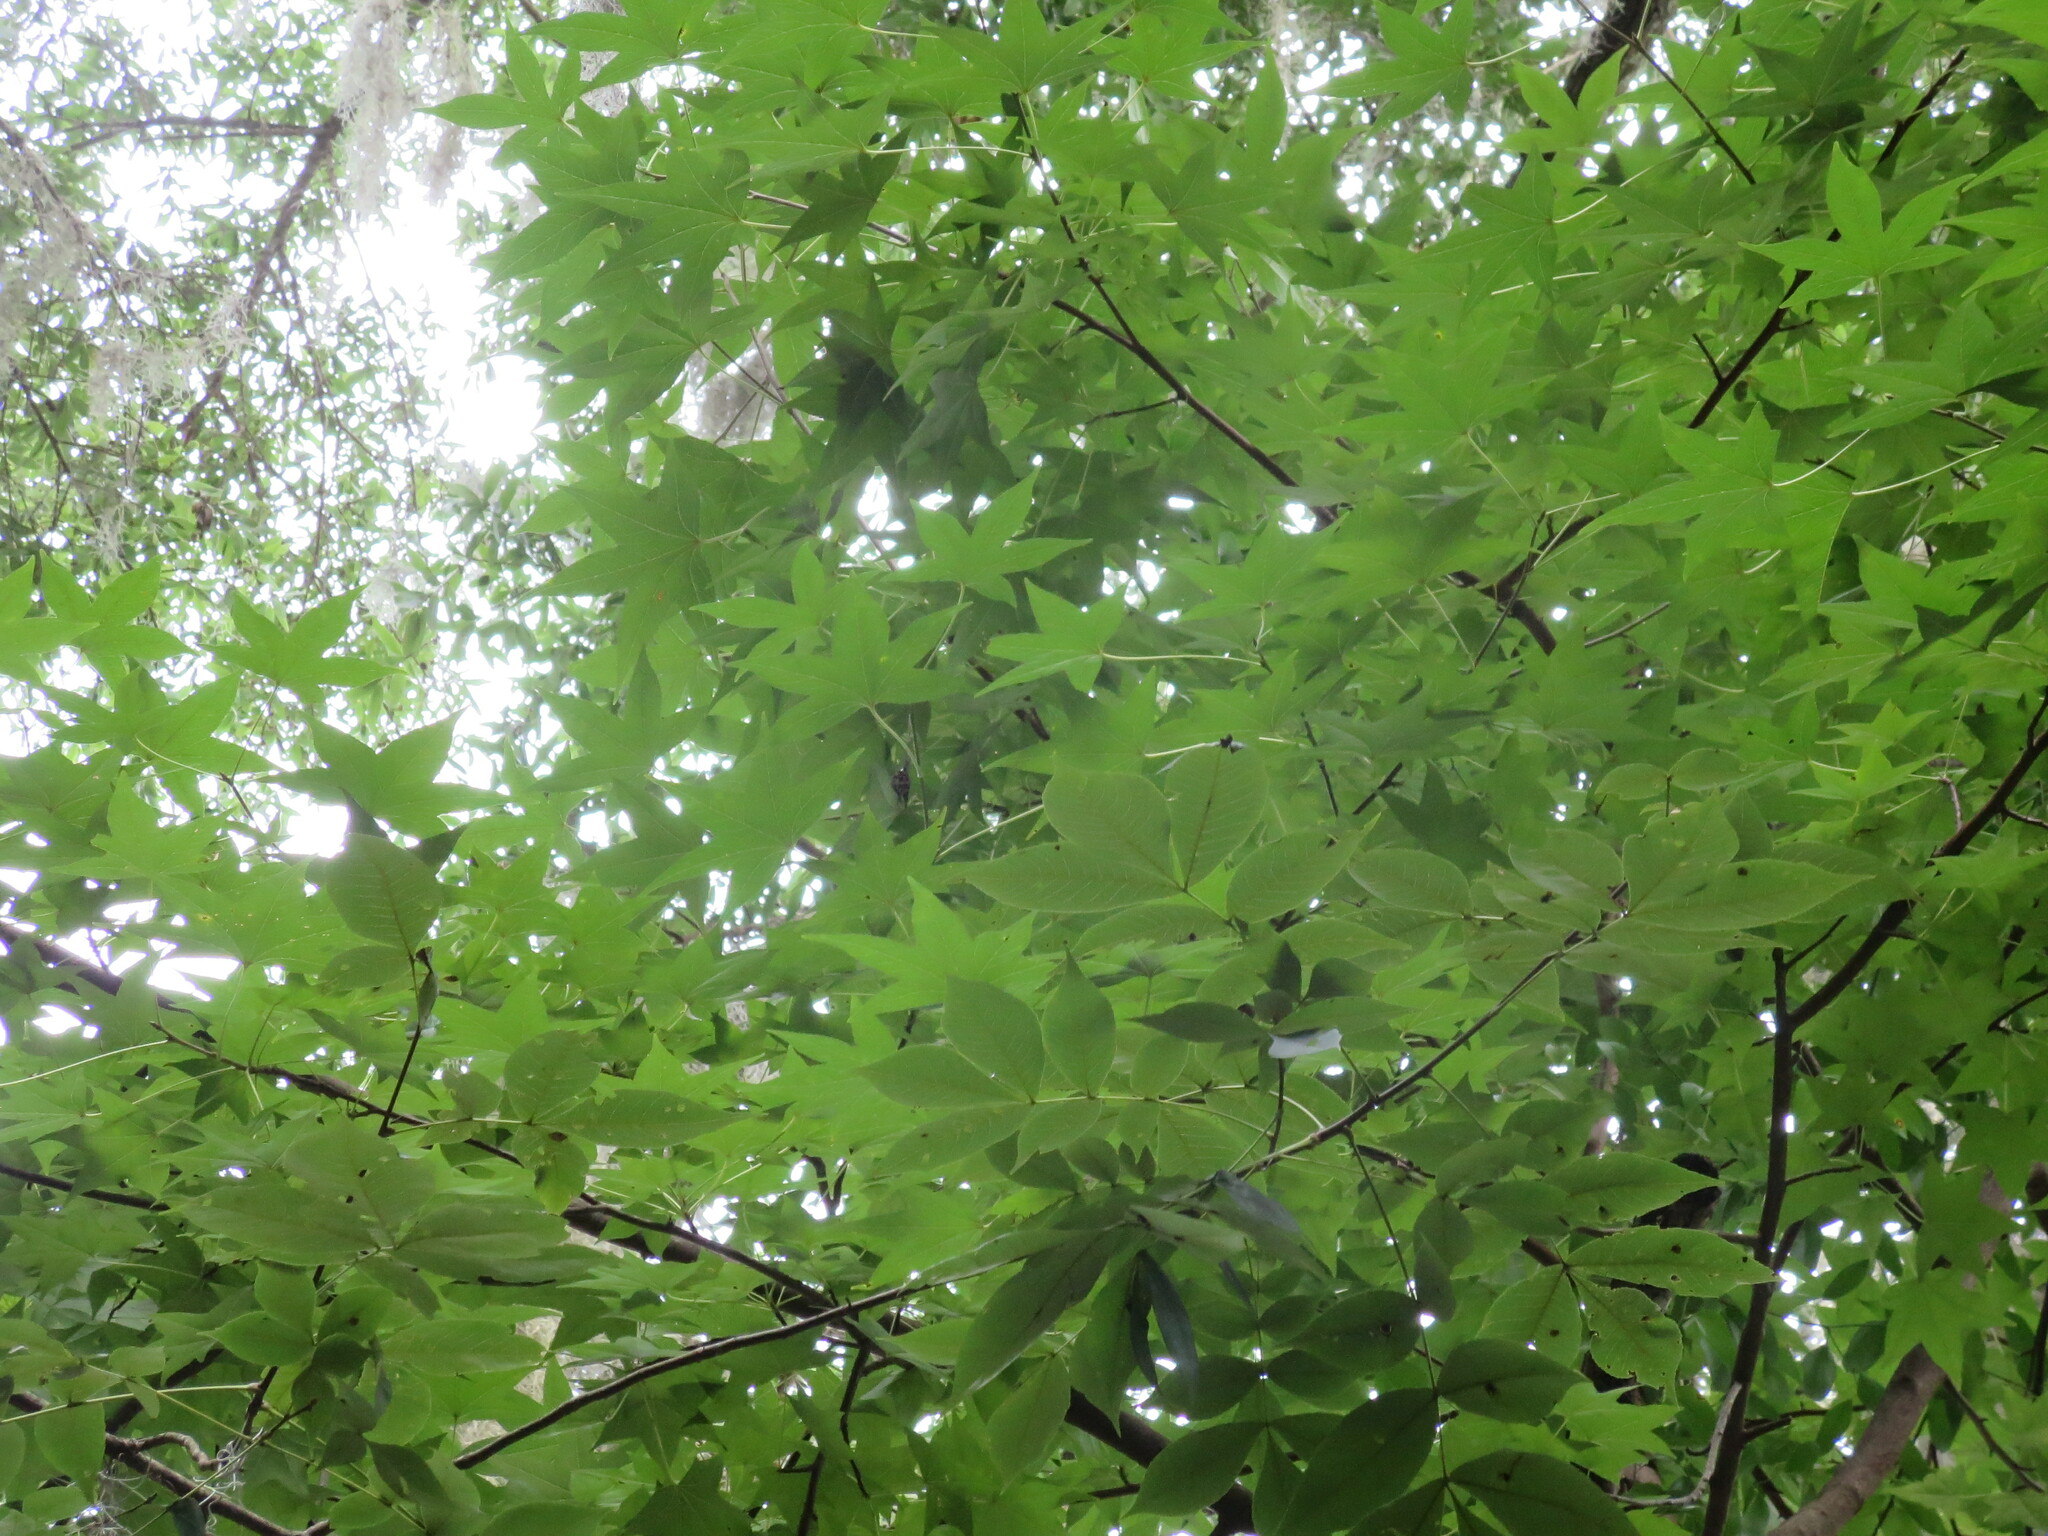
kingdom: Plantae
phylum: Tracheophyta
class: Magnoliopsida
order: Saxifragales
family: Altingiaceae
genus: Liquidambar
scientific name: Liquidambar styraciflua
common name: Sweet gum
